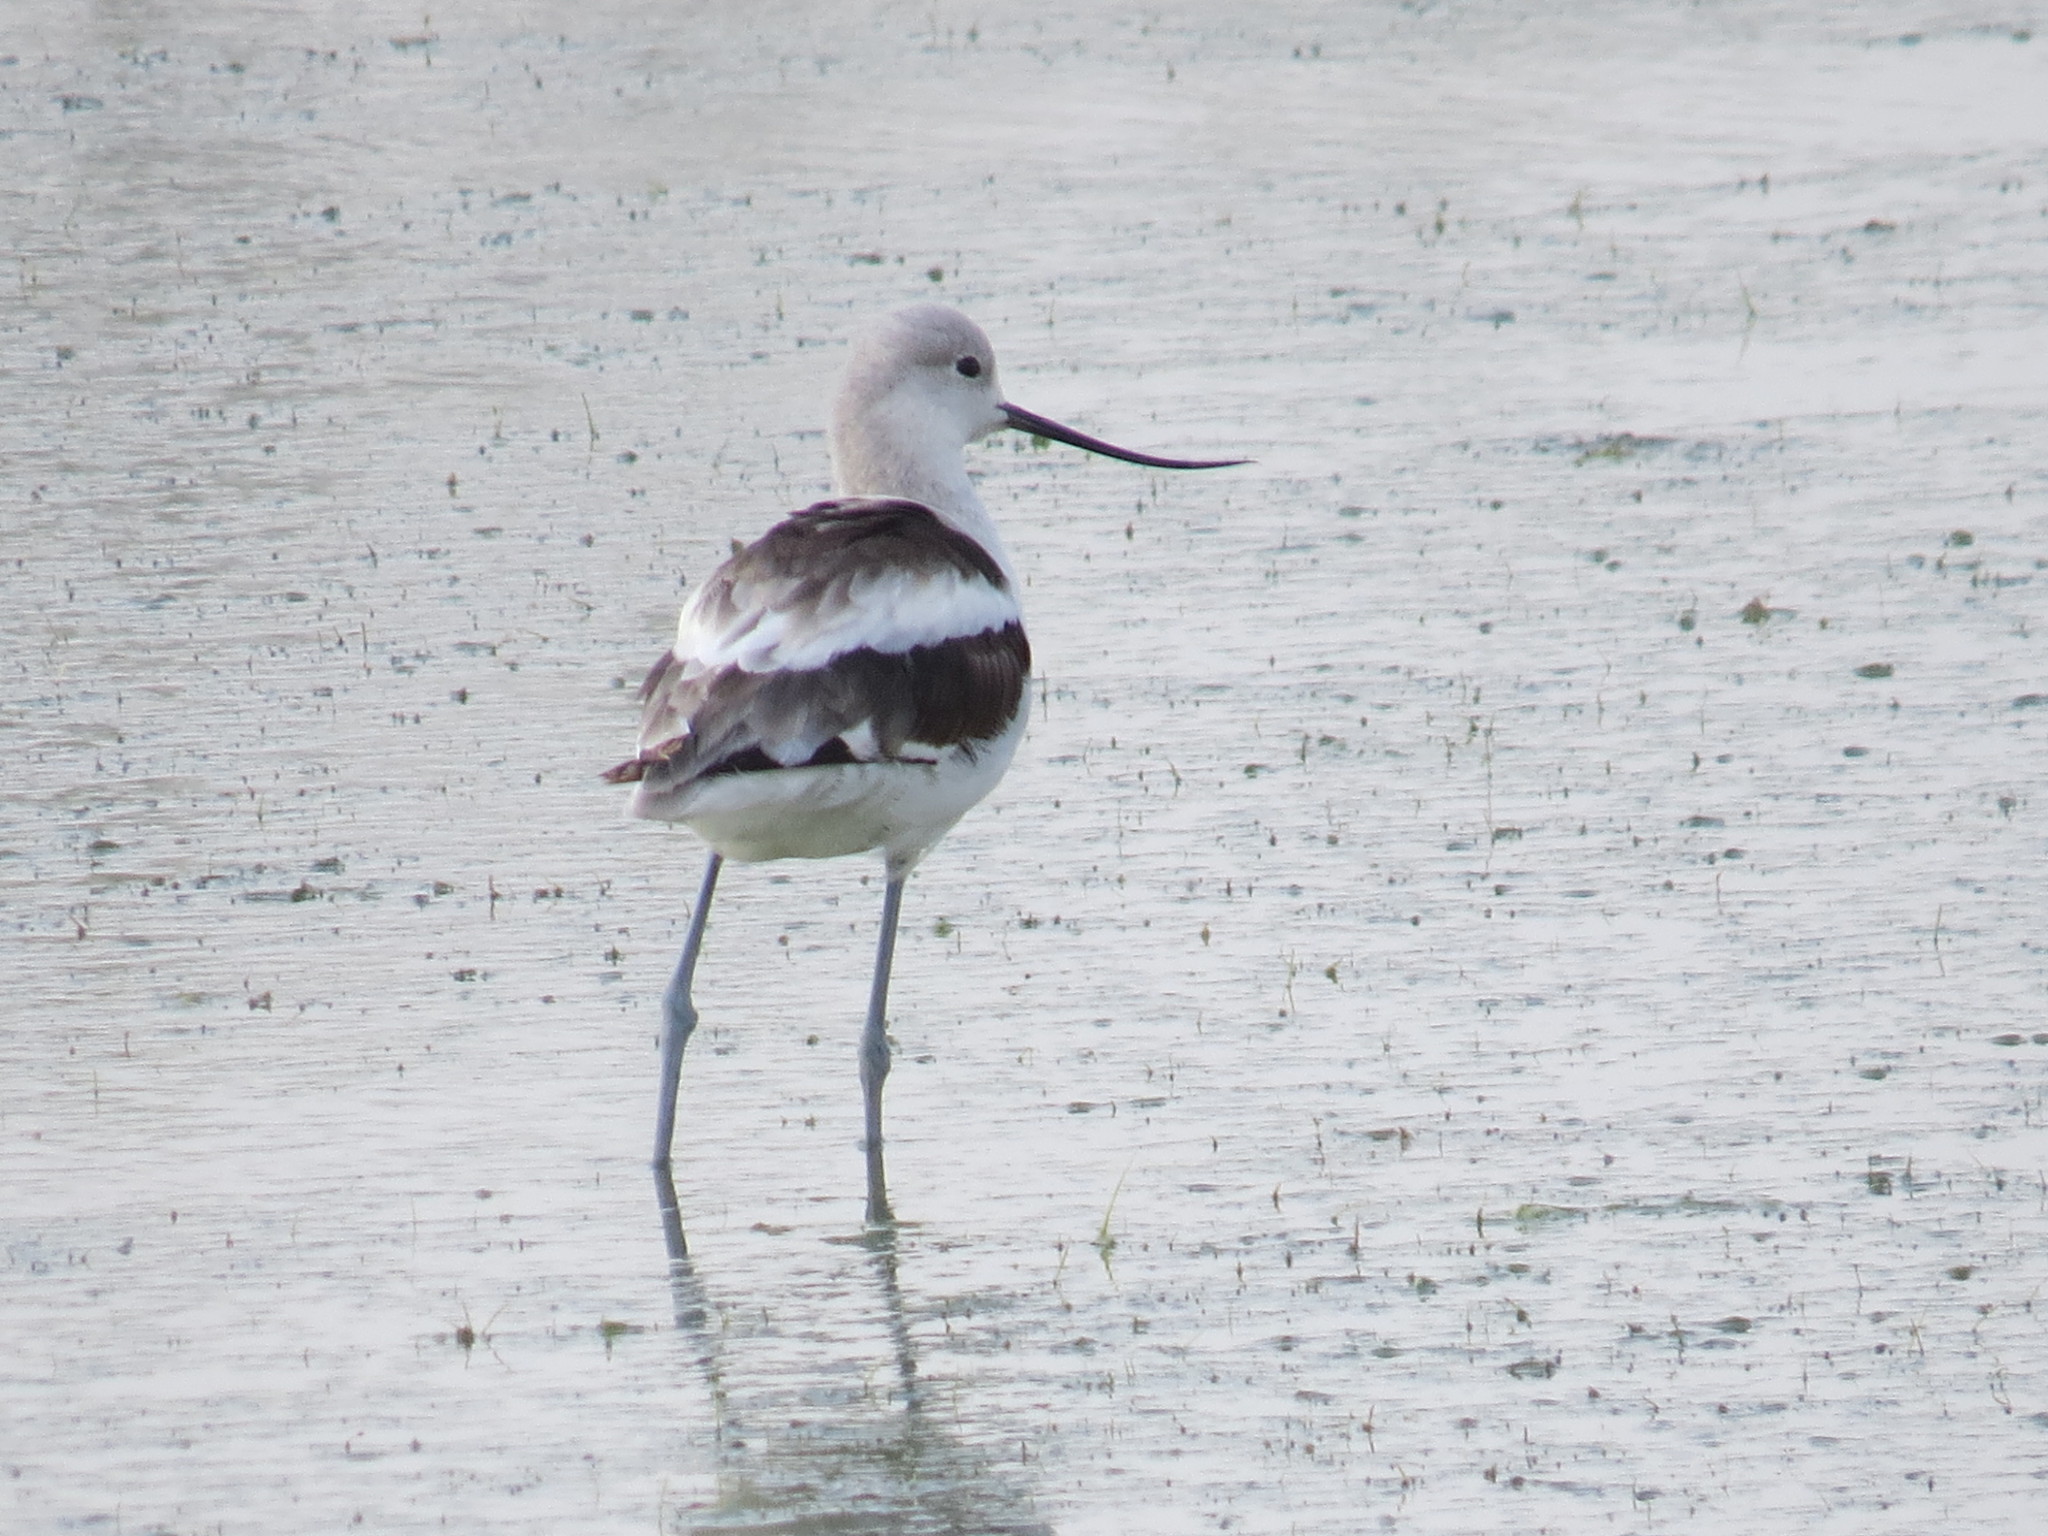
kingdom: Animalia
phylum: Chordata
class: Aves
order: Charadriiformes
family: Recurvirostridae
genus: Recurvirostra
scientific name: Recurvirostra americana
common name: American avocet
